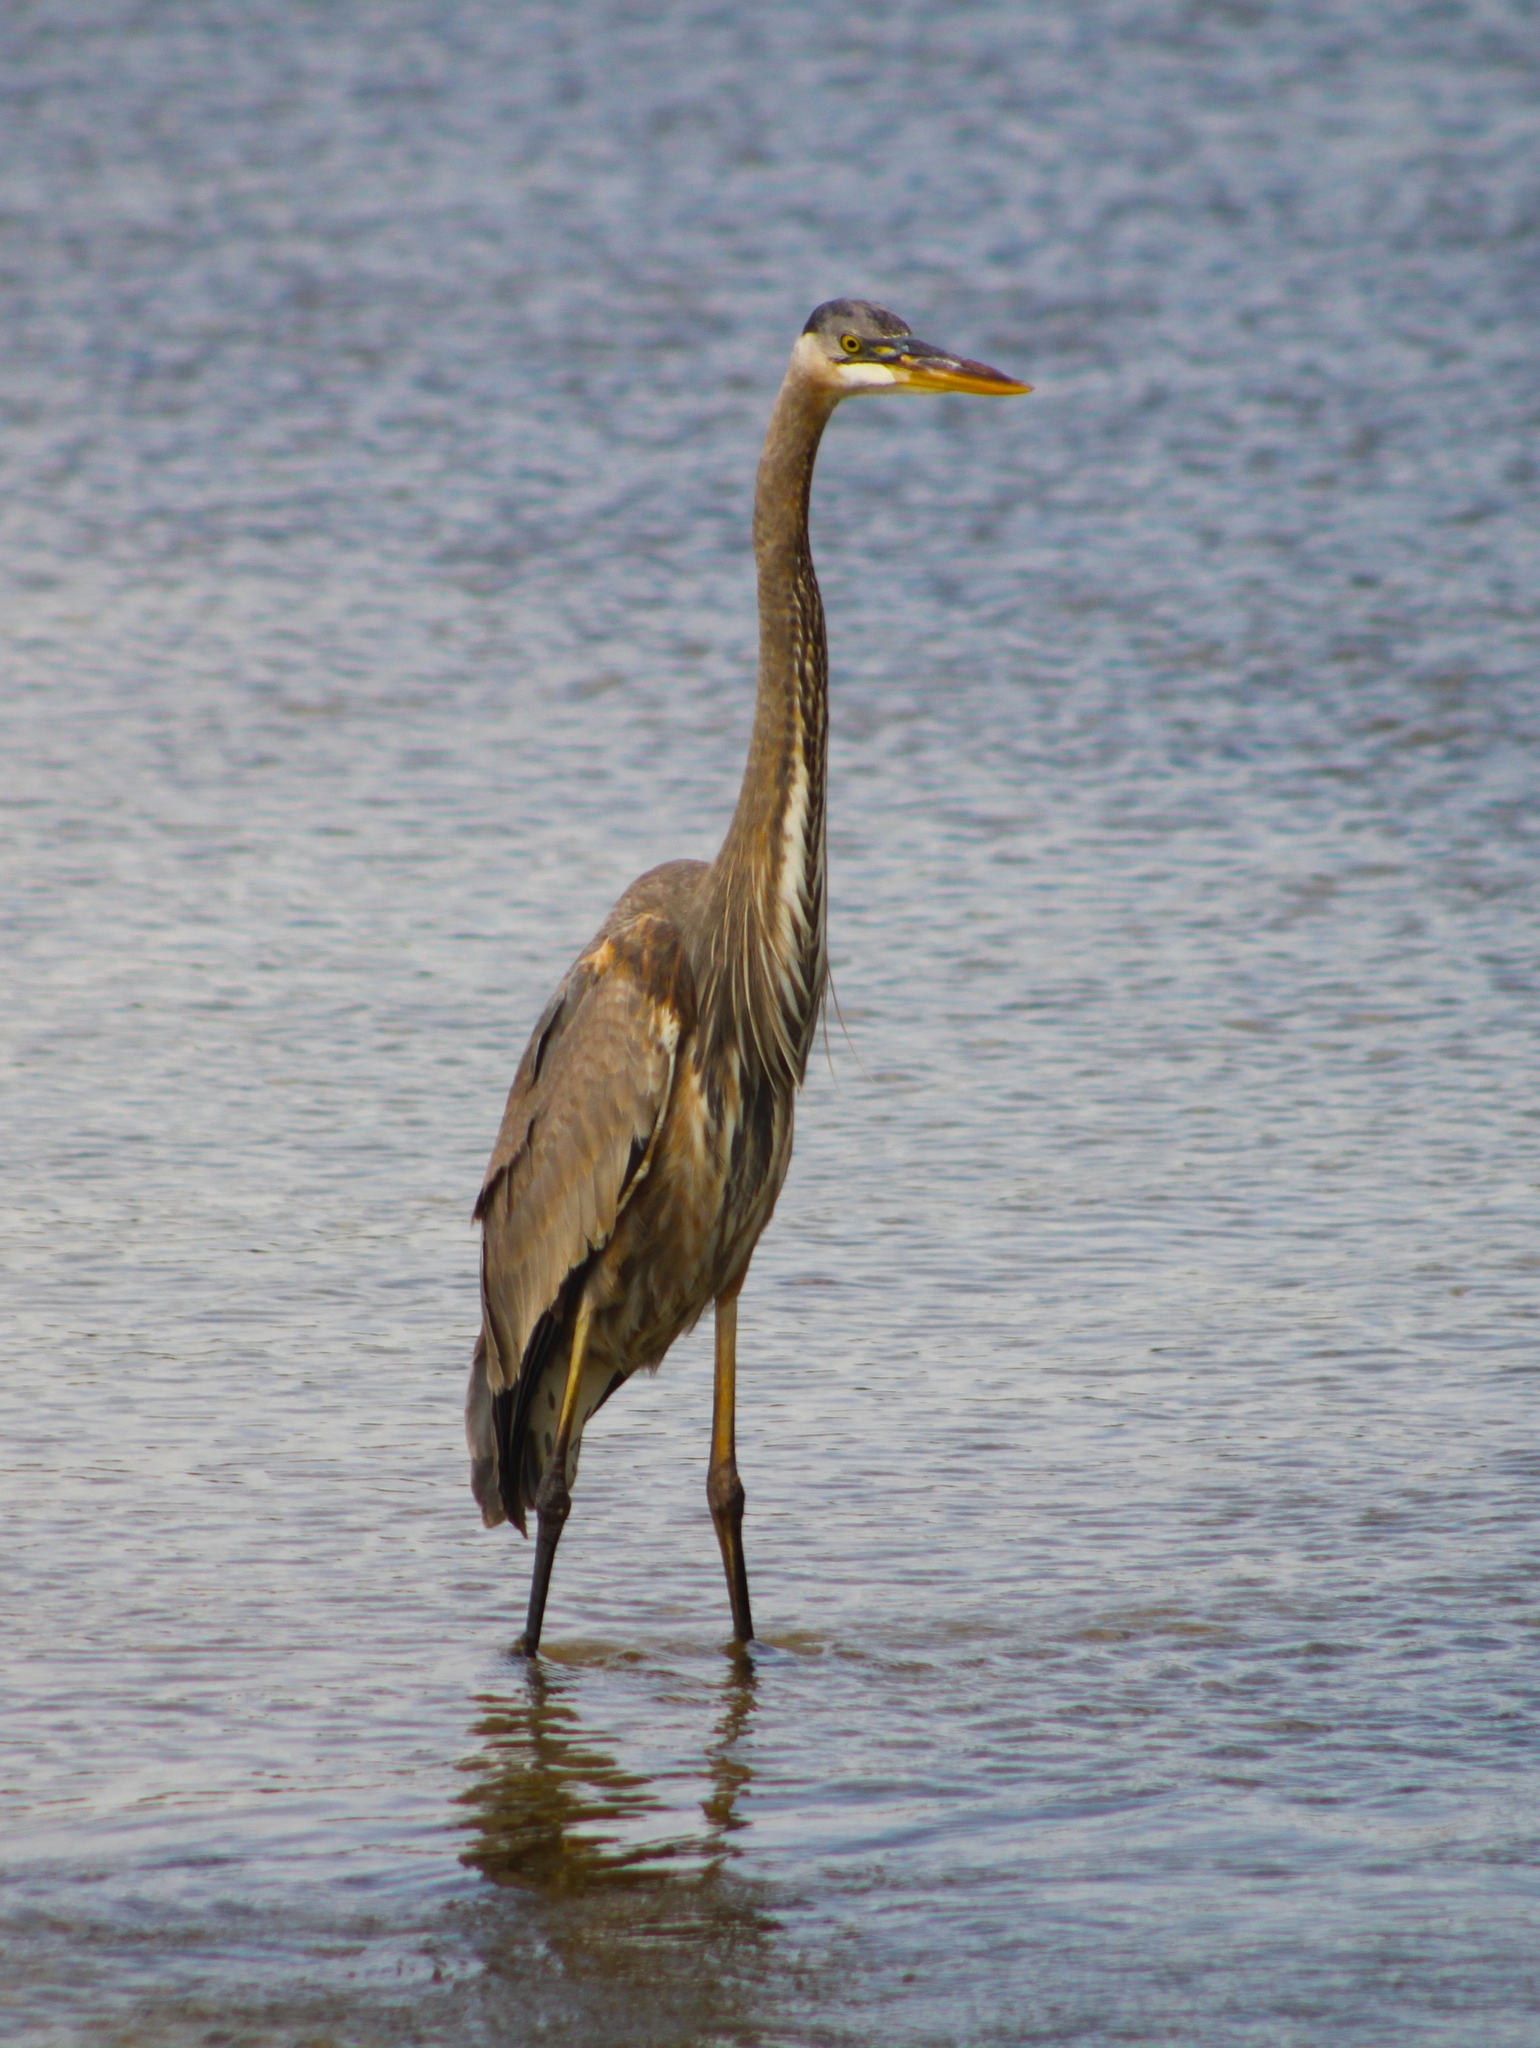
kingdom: Animalia
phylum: Chordata
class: Aves
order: Pelecaniformes
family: Ardeidae
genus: Ardea
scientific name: Ardea herodias
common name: Great blue heron
